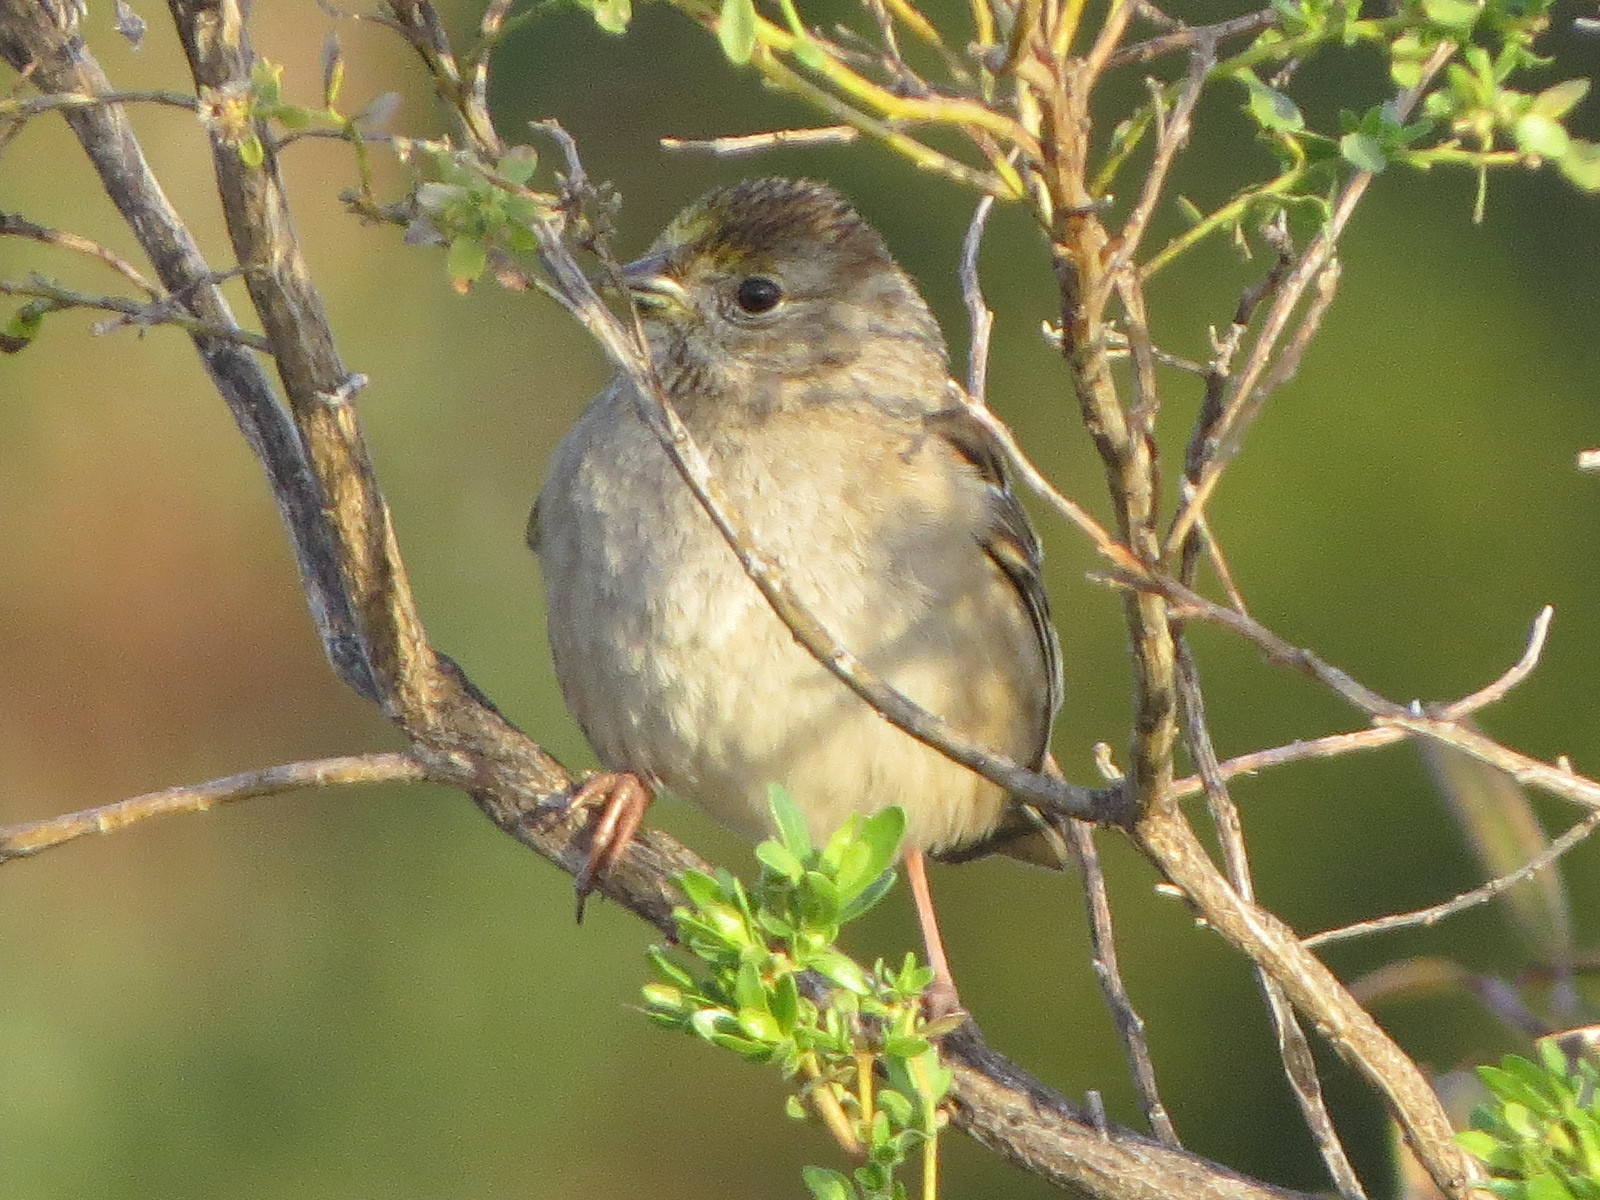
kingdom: Animalia
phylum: Chordata
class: Aves
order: Passeriformes
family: Passerellidae
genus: Zonotrichia
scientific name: Zonotrichia atricapilla
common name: Golden-crowned sparrow
